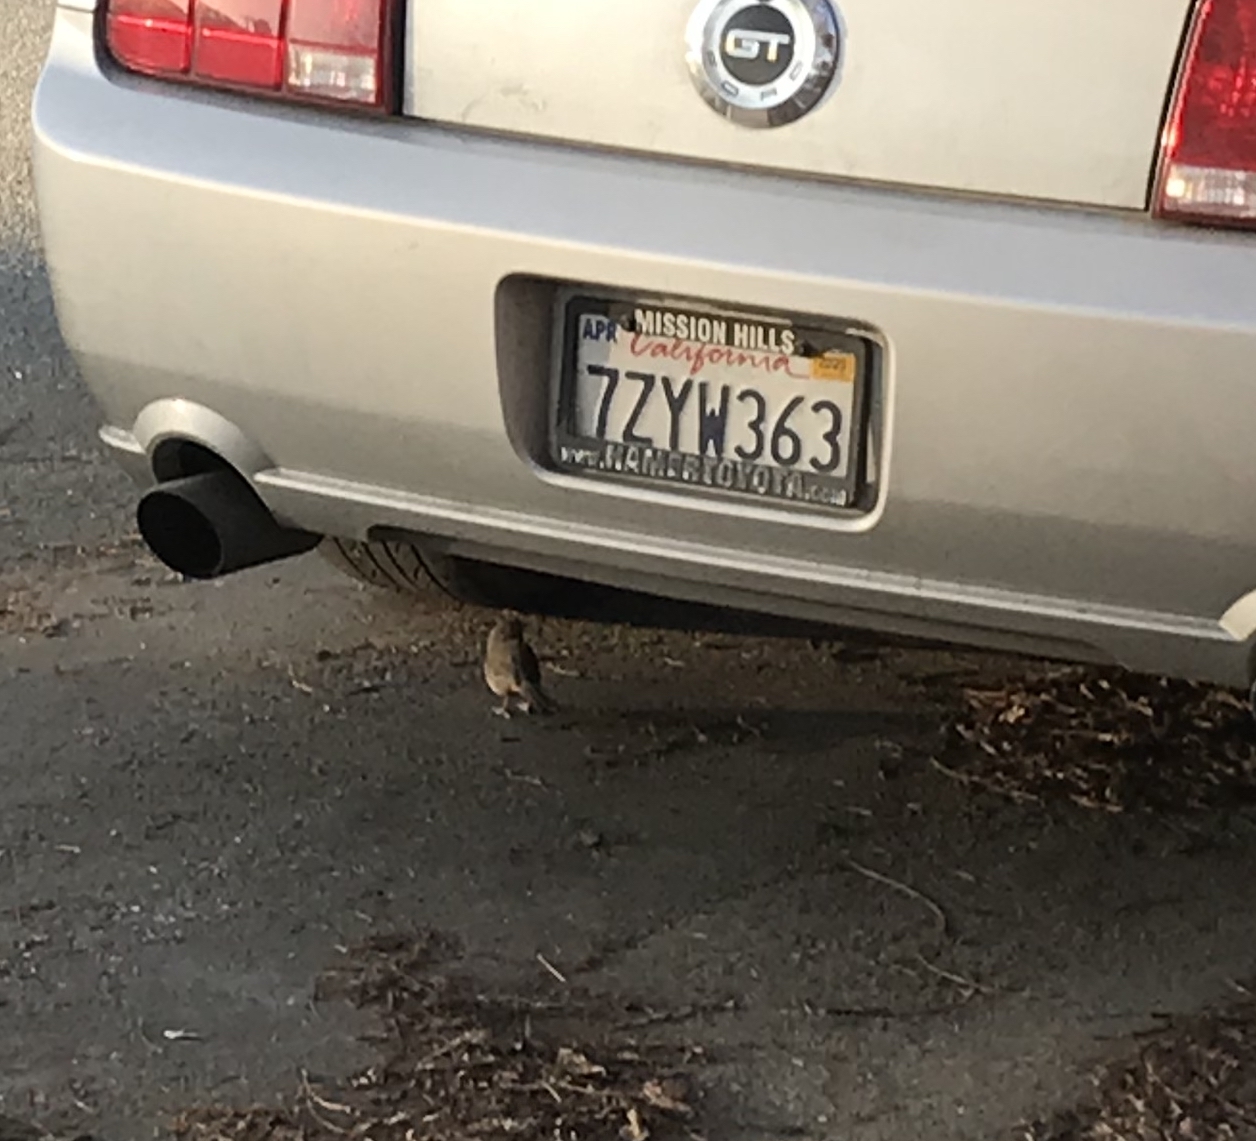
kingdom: Animalia
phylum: Chordata
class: Aves
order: Passeriformes
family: Passerellidae
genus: Melozone
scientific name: Melozone crissalis
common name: California towhee
